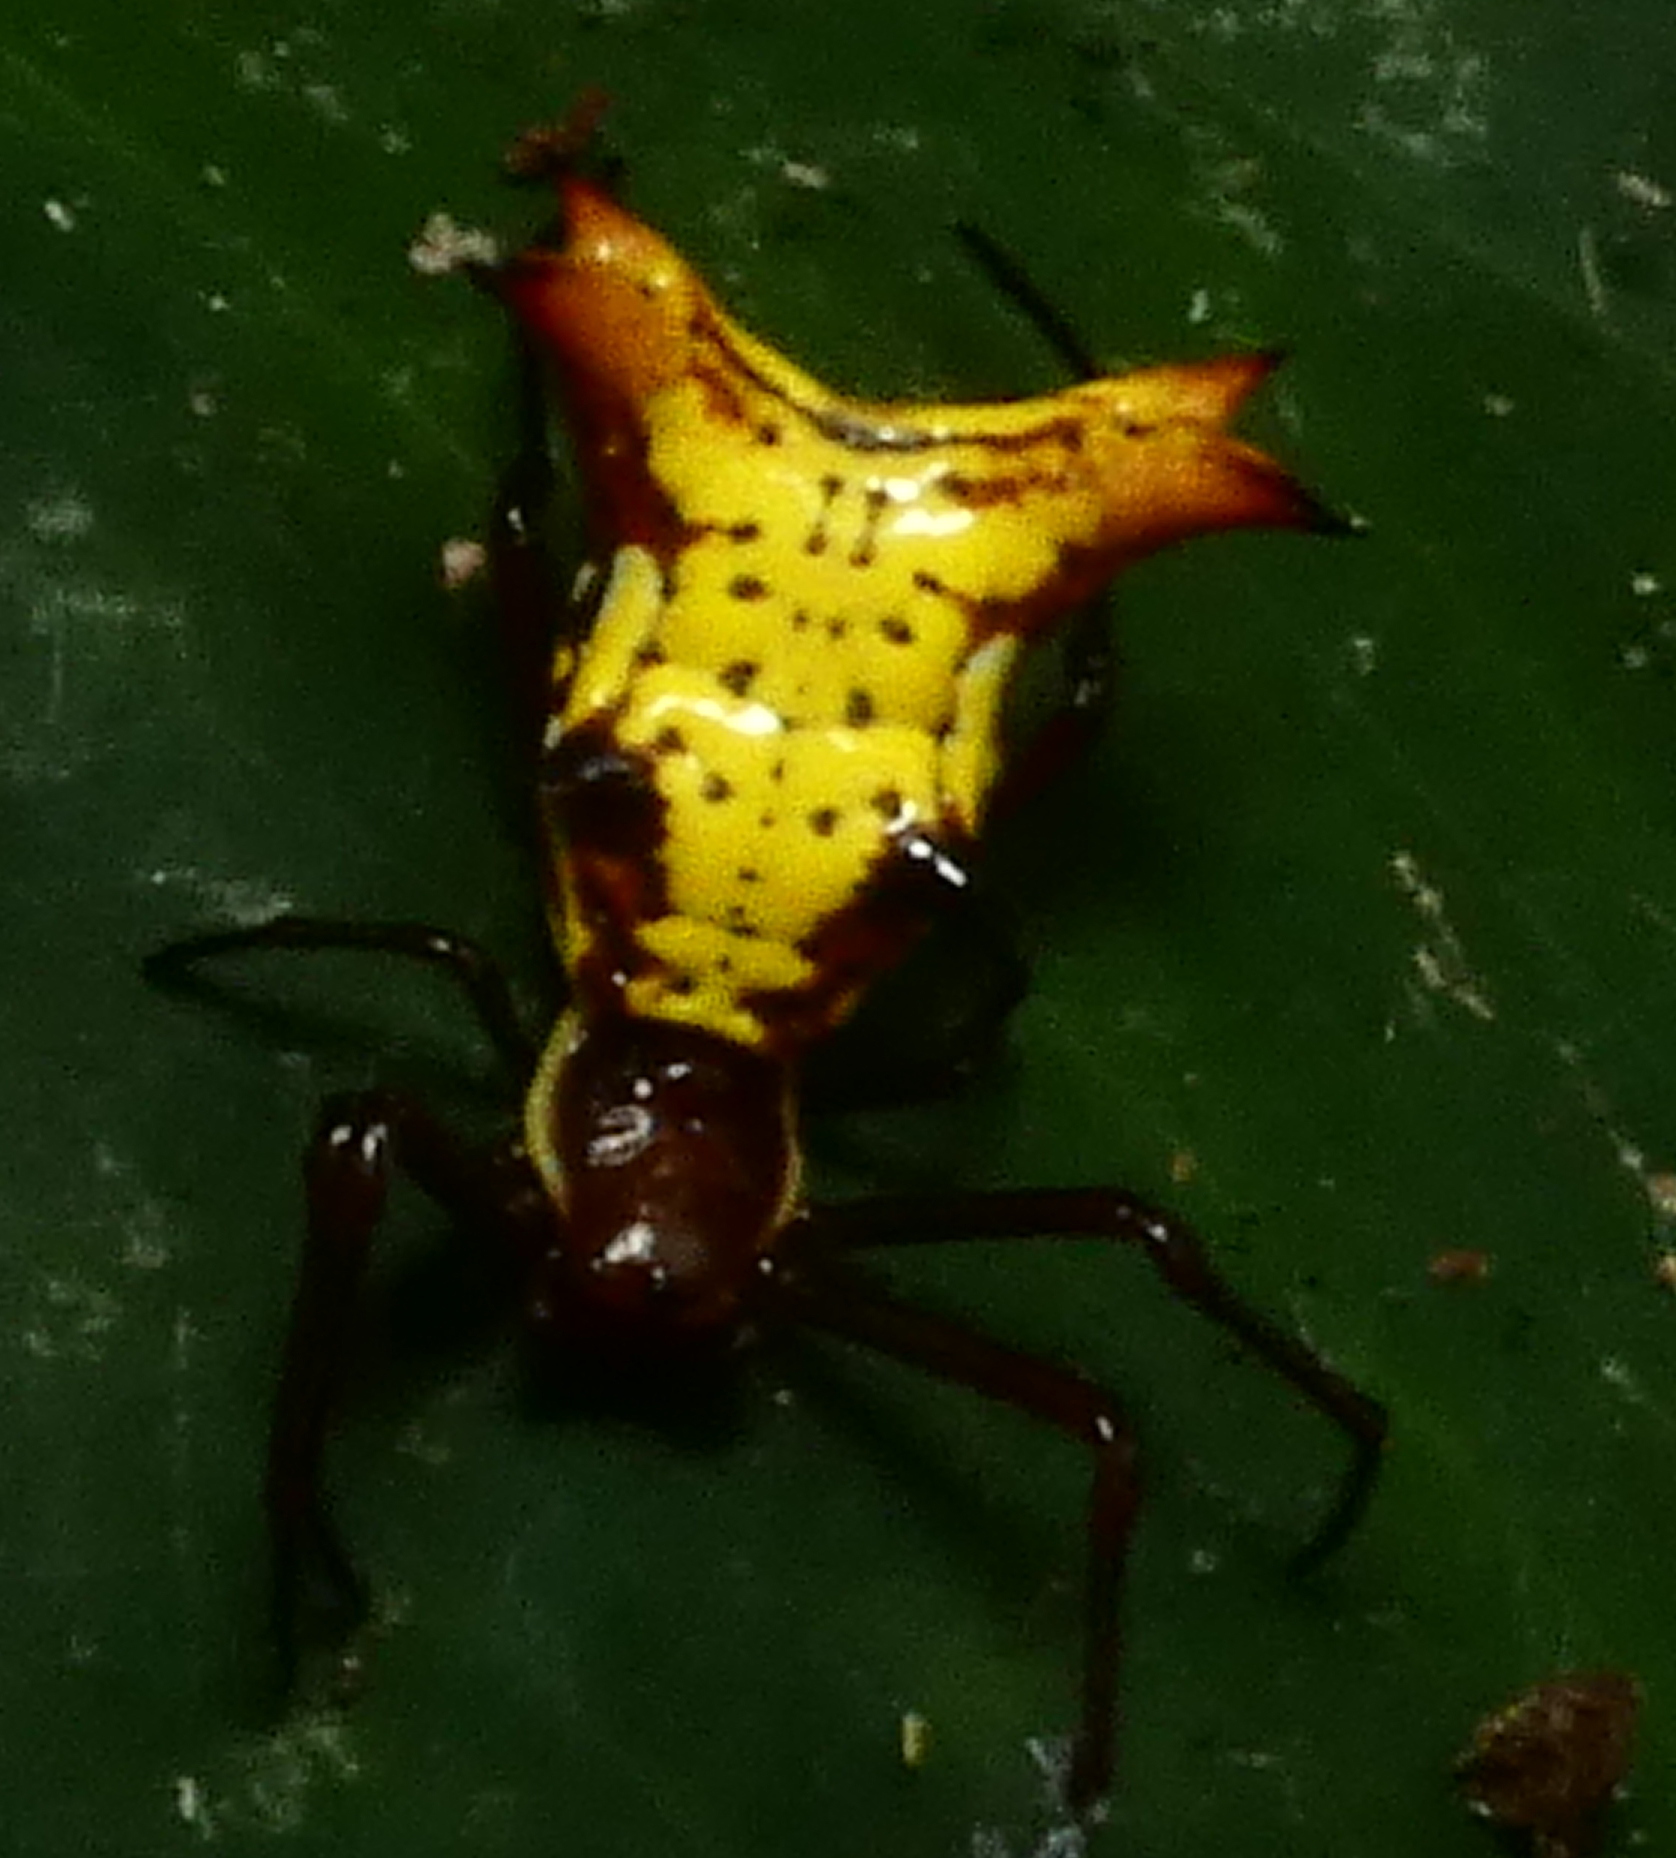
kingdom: Animalia
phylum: Arthropoda
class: Arachnida
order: Araneae
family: Araneidae
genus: Micrathena
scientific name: Micrathena fissispina
